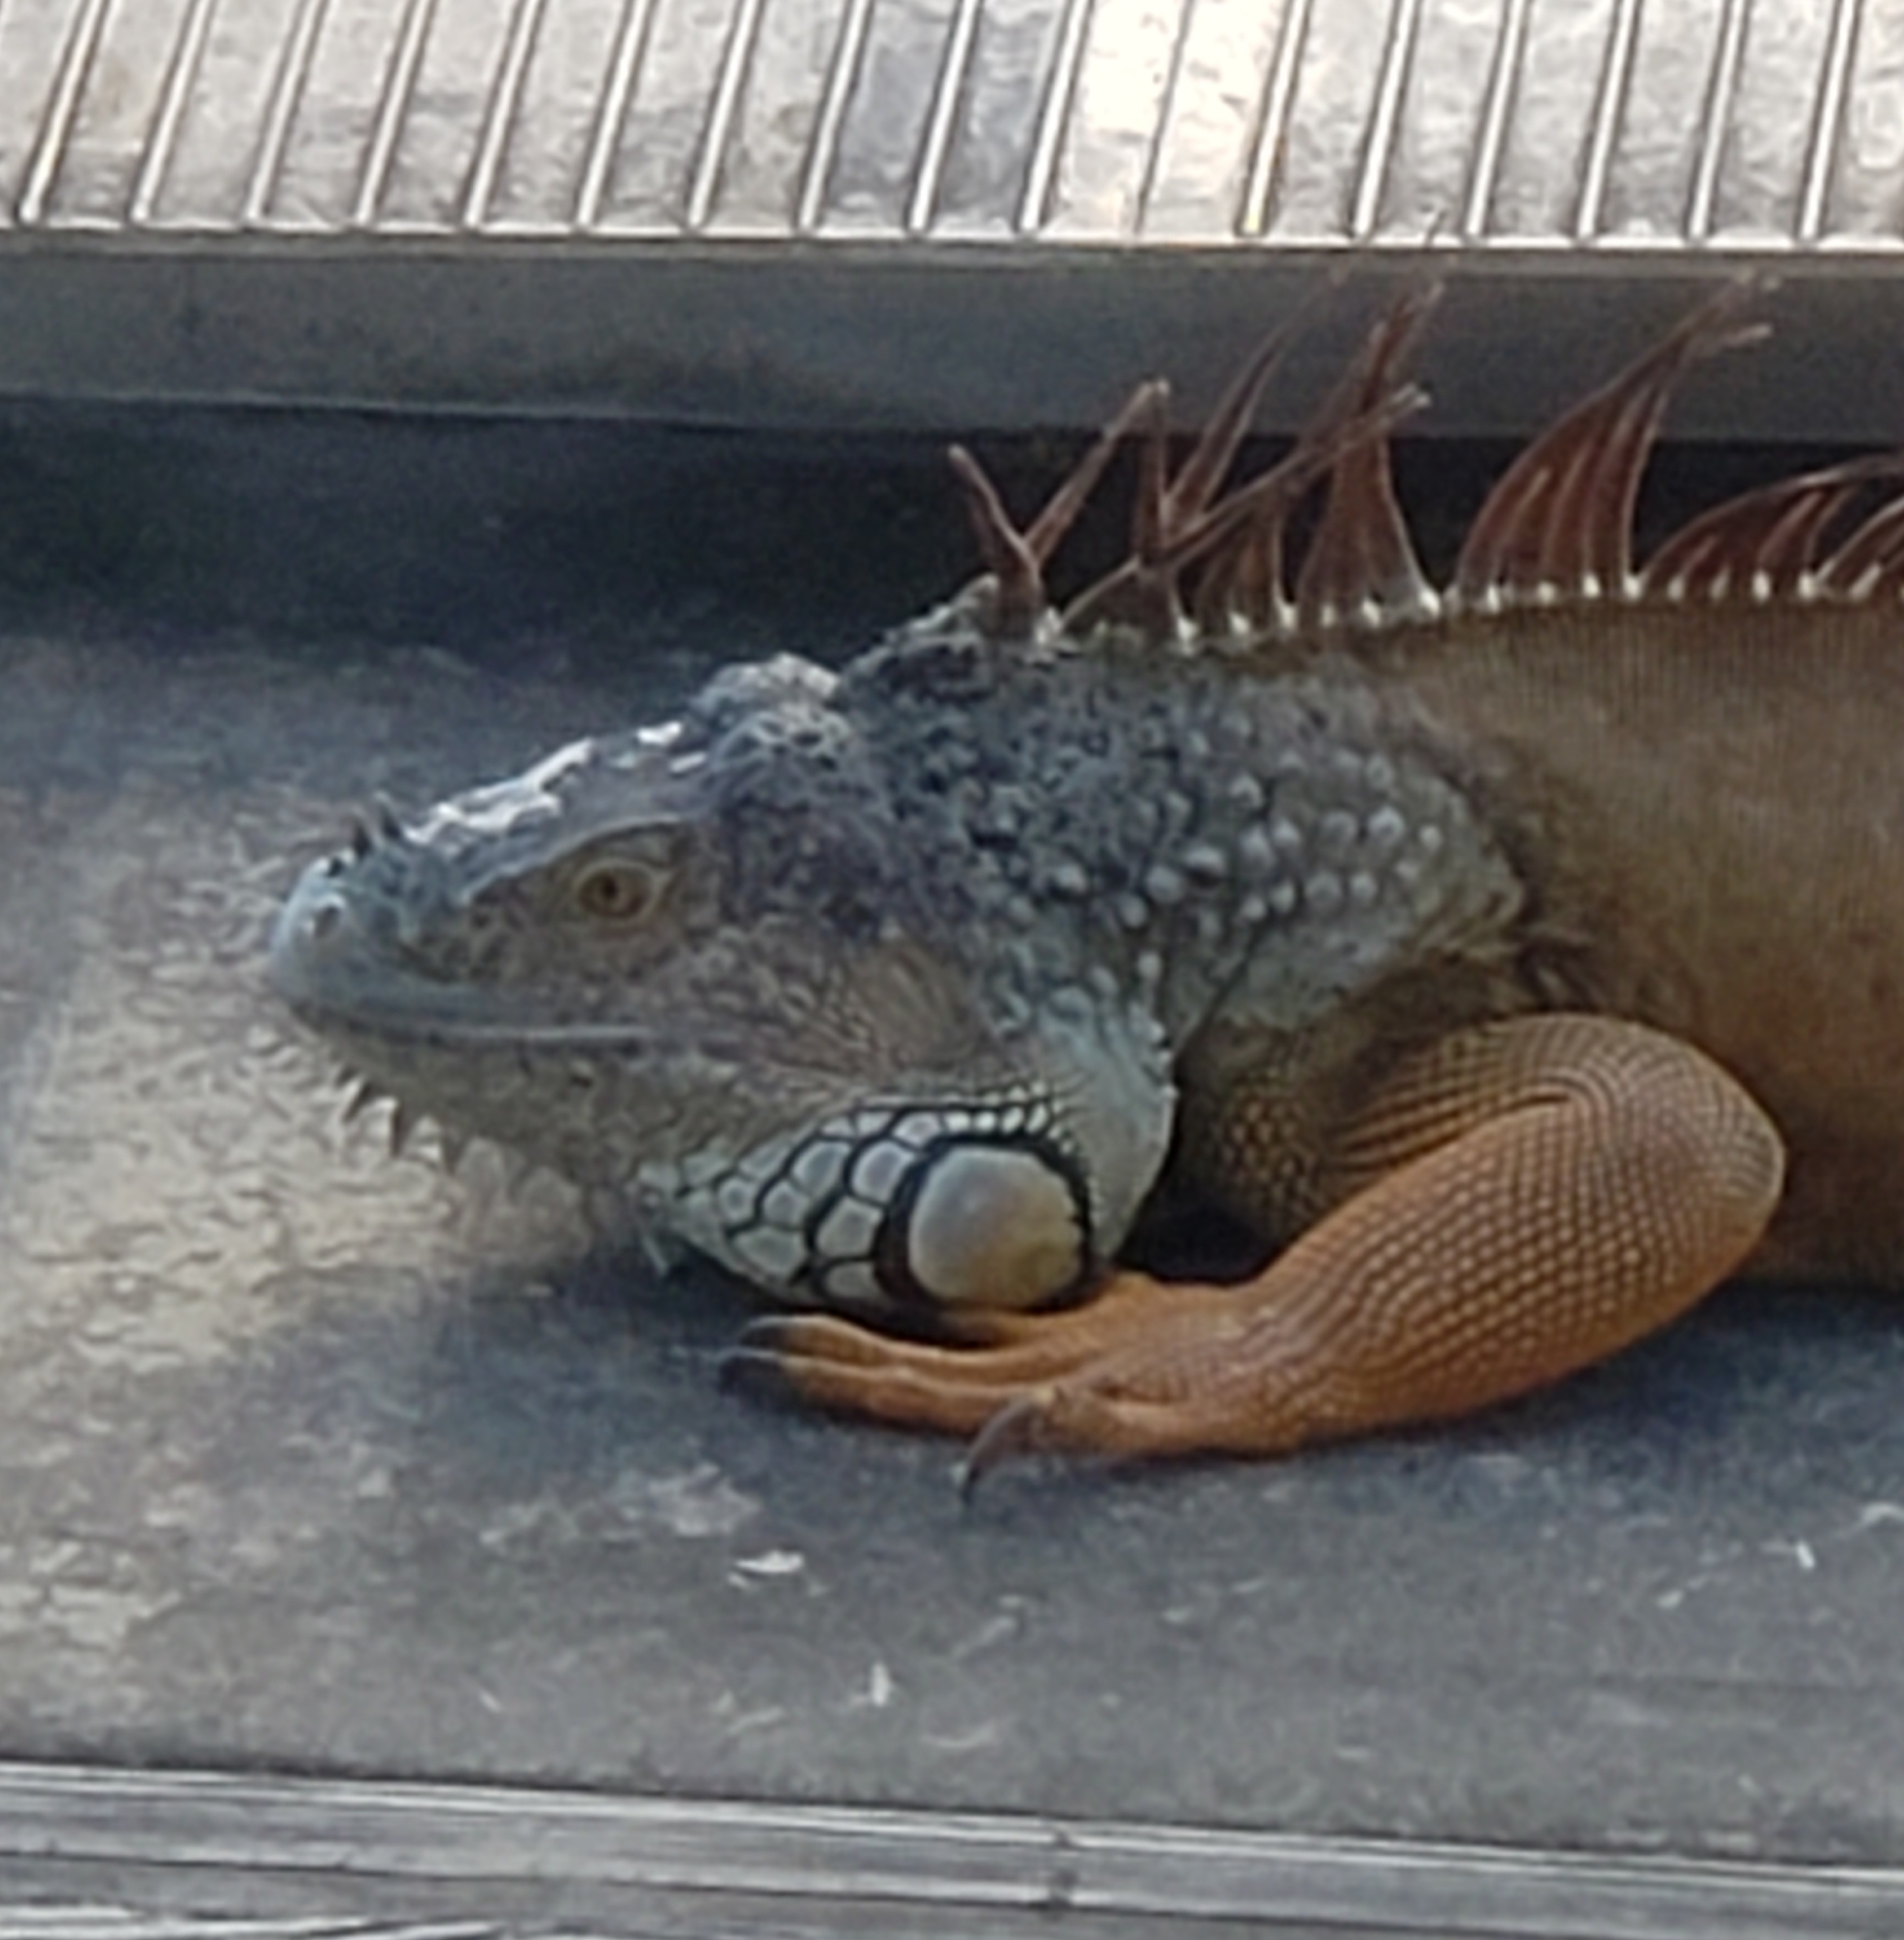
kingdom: Animalia
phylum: Chordata
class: Squamata
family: Iguanidae
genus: Iguana
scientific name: Iguana iguana
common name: Green iguana
